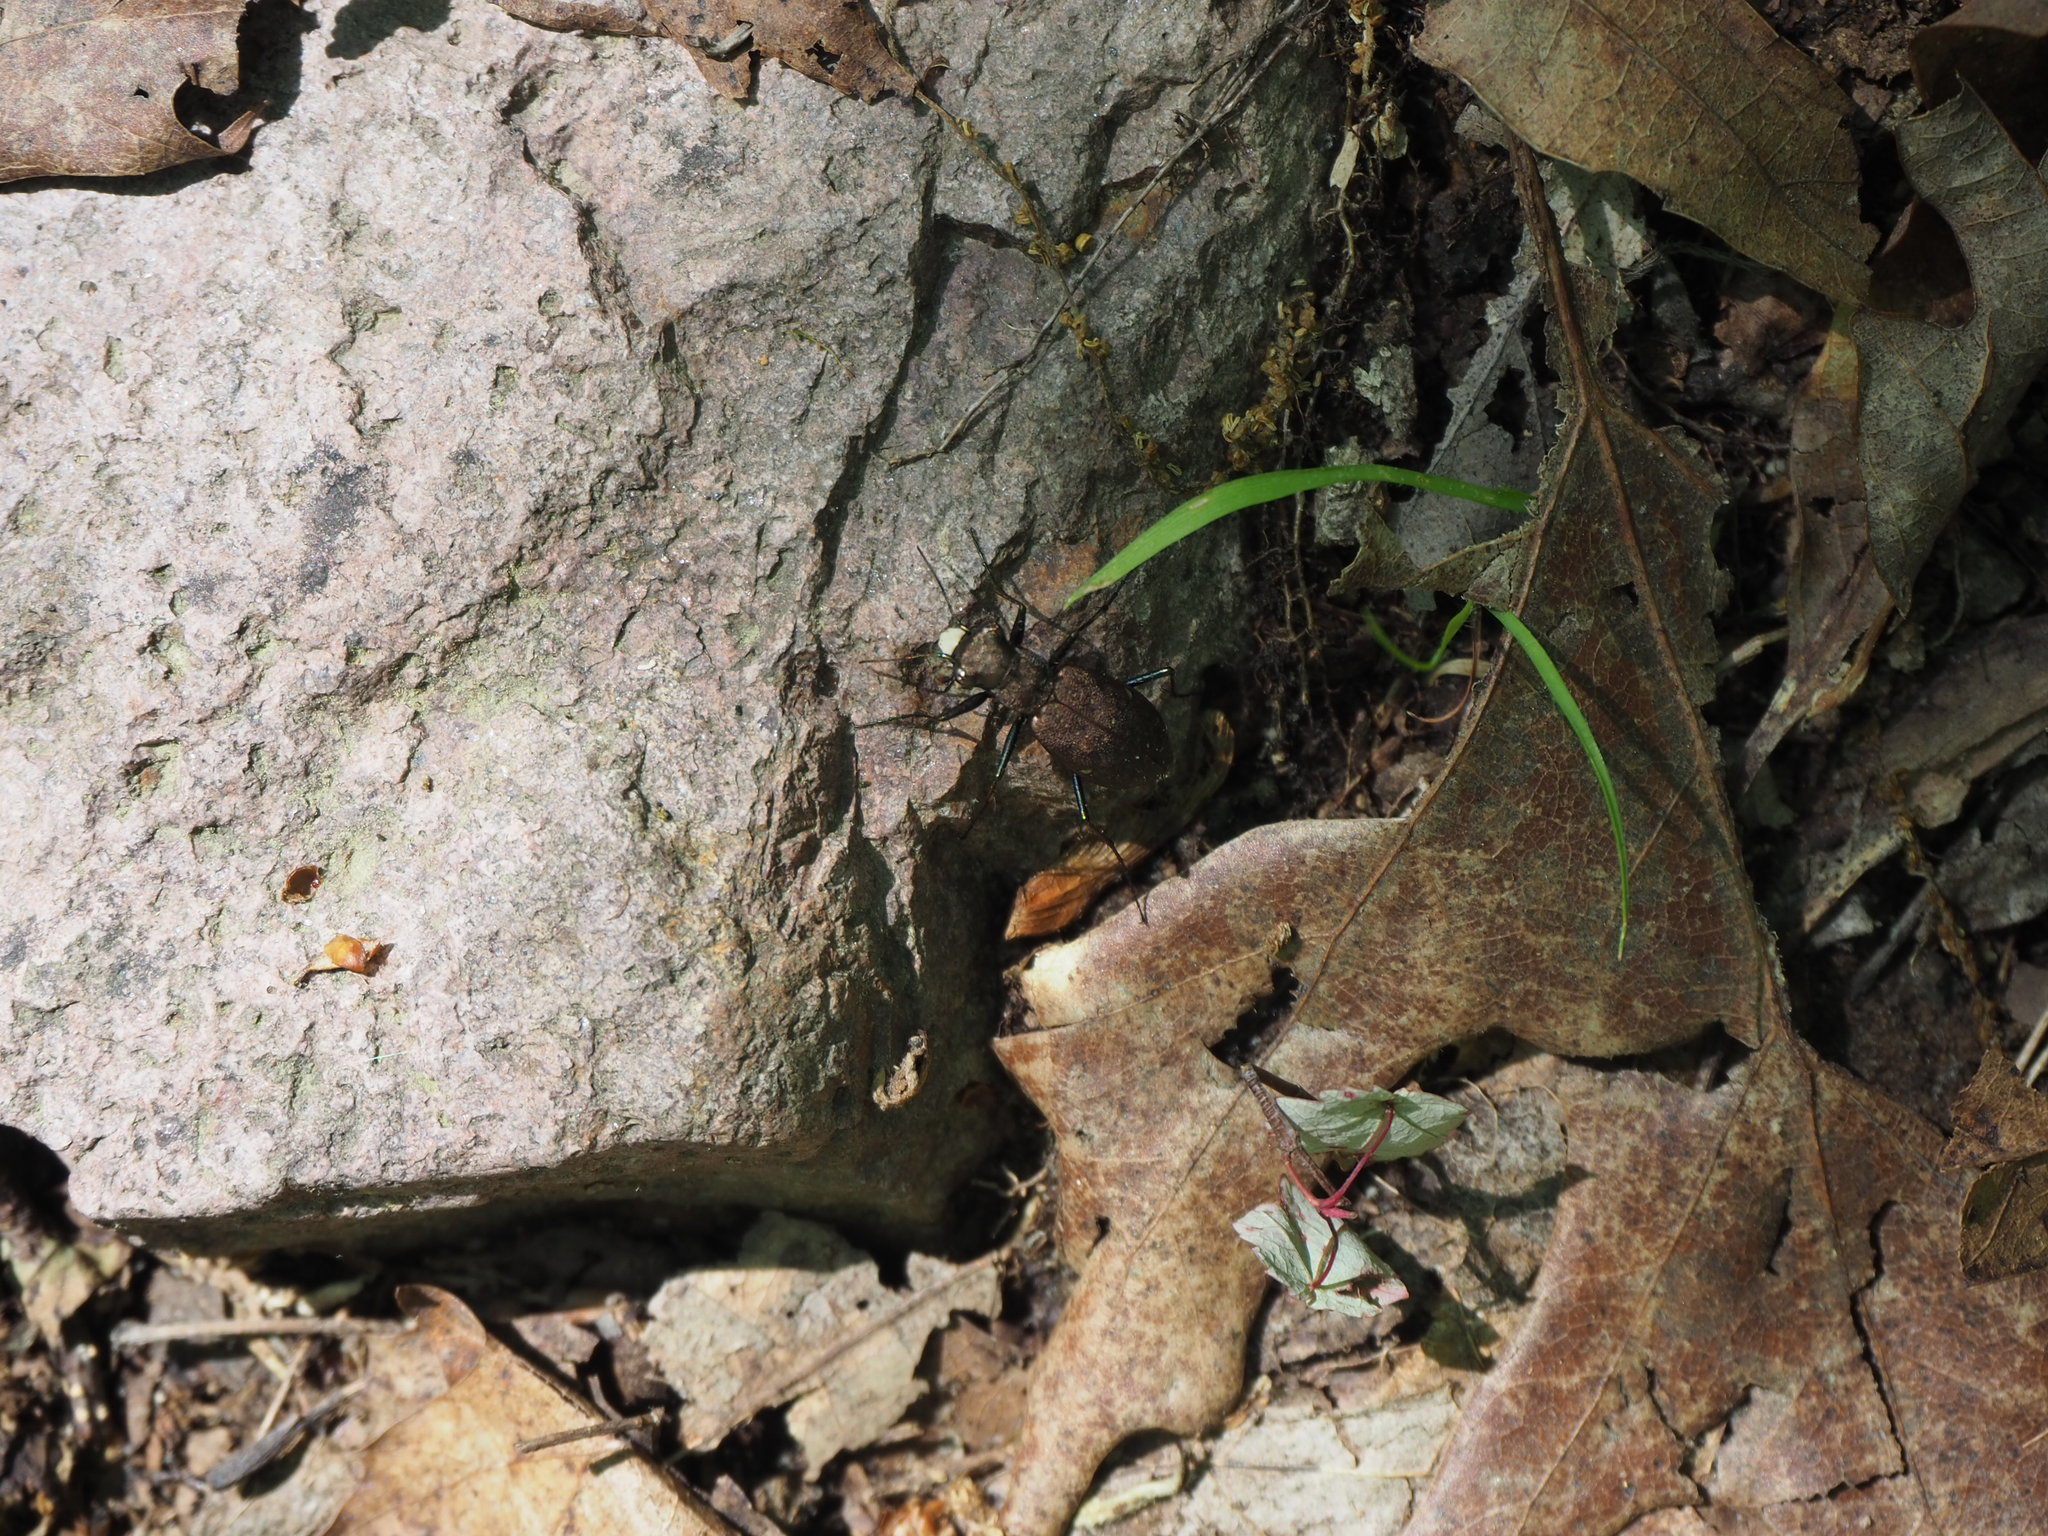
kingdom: Animalia
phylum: Arthropoda
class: Insecta
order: Coleoptera
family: Carabidae
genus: Cylindera
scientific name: Cylindera unipunctata
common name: One-spotted tiger beetle
